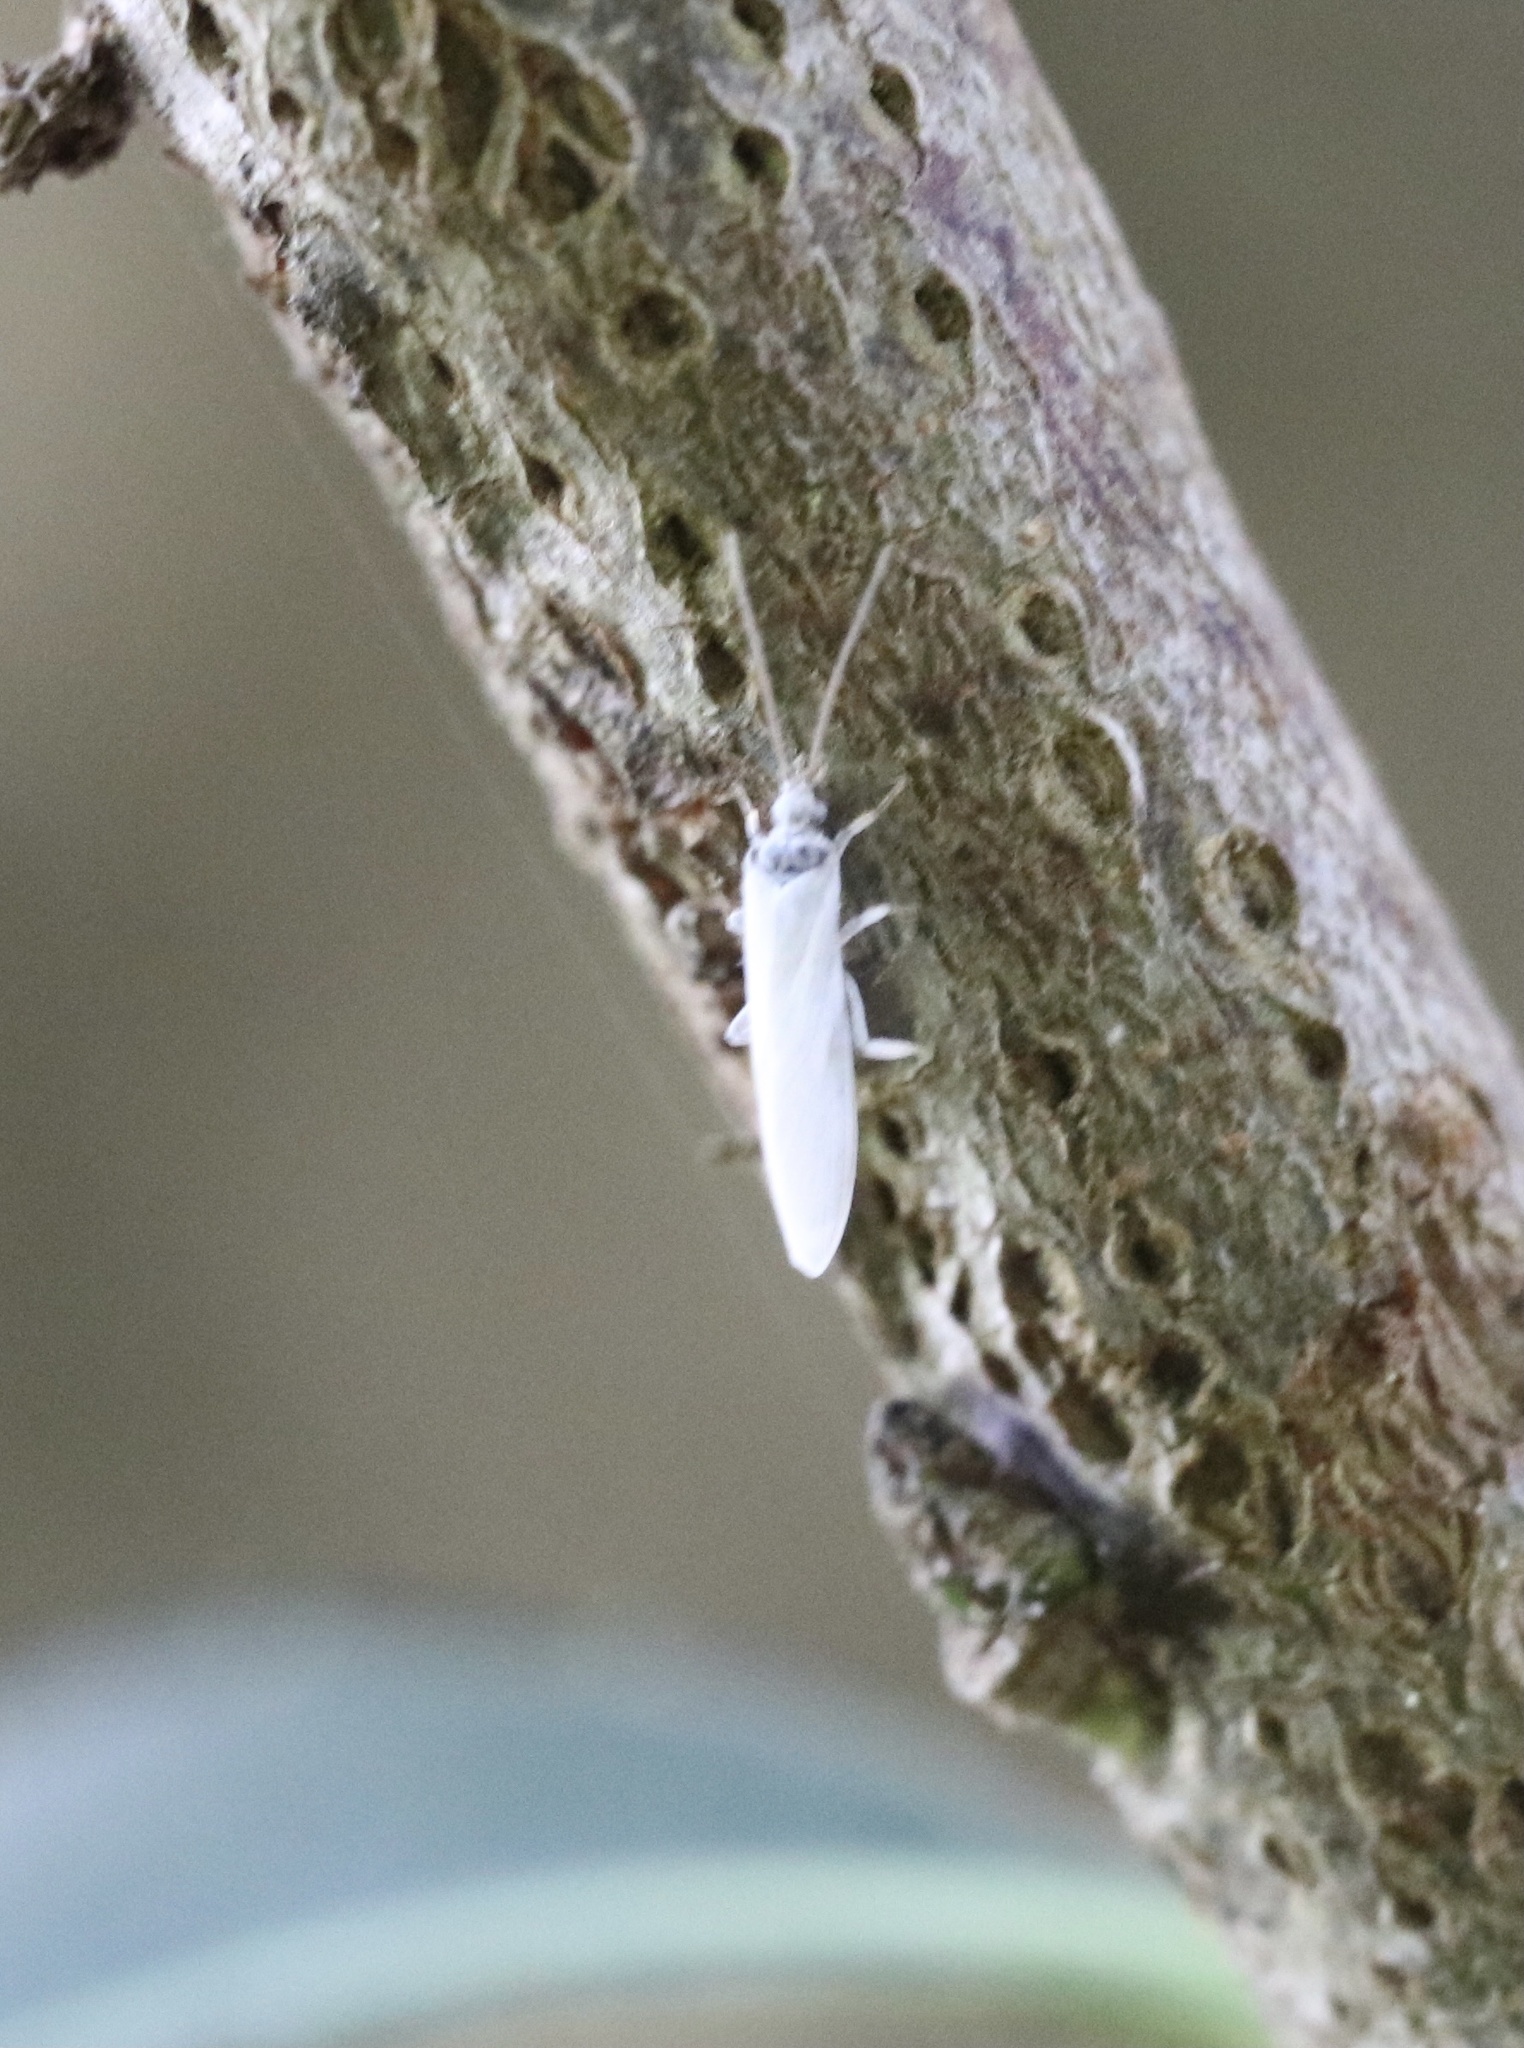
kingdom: Animalia
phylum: Arthropoda
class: Insecta
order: Neuroptera
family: Coniopterygidae
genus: Semidalis
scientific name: Semidalis kolbei
